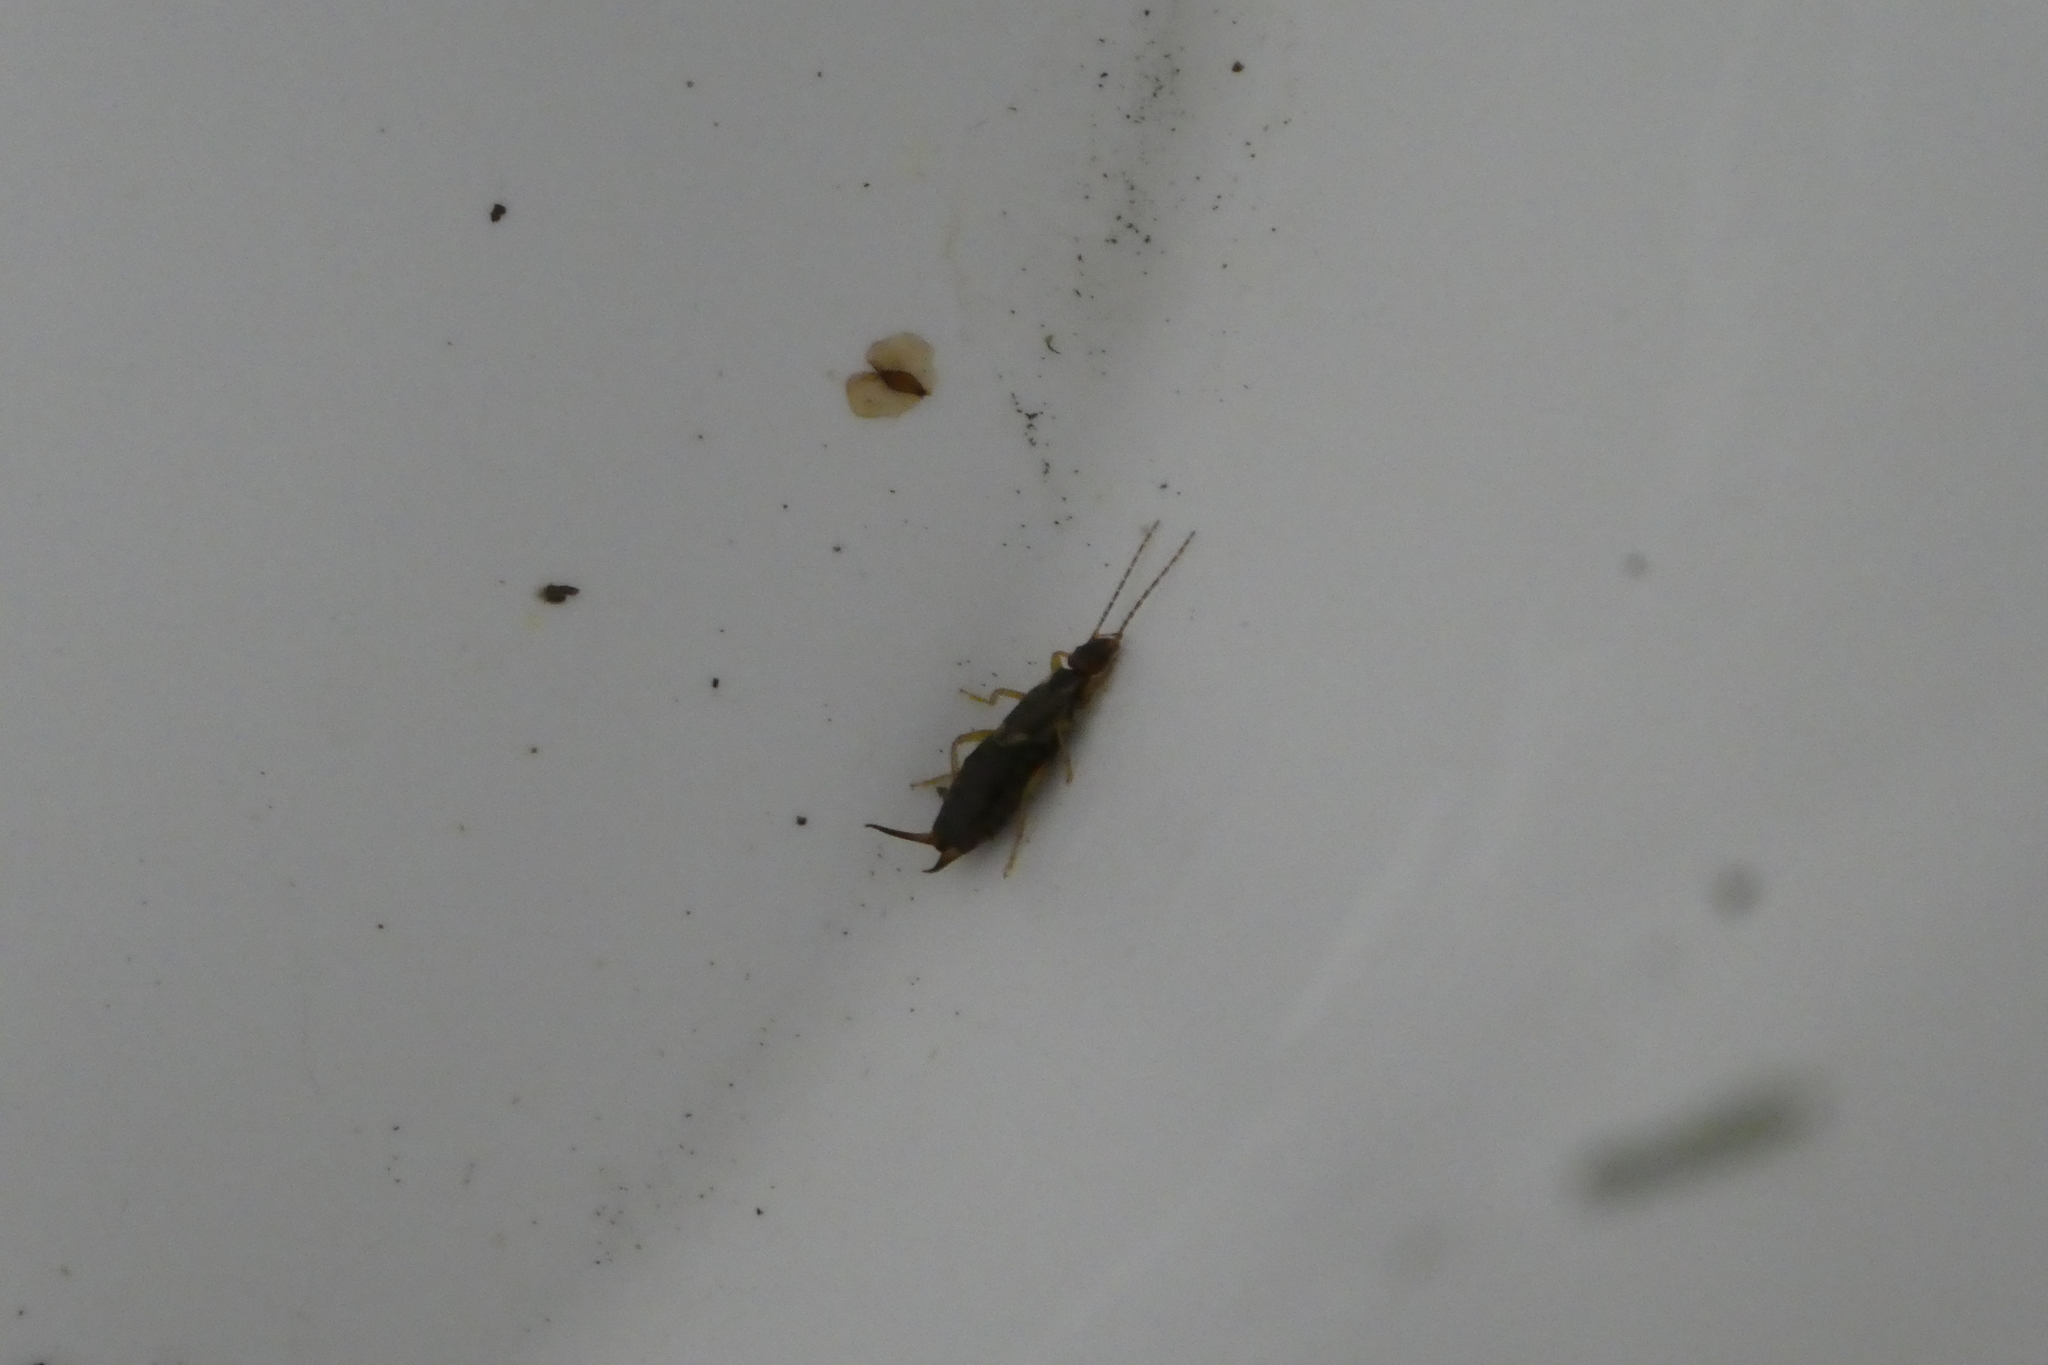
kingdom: Animalia
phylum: Arthropoda
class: Insecta
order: Dermaptera
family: Forficulidae
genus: Forficula
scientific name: Forficula
